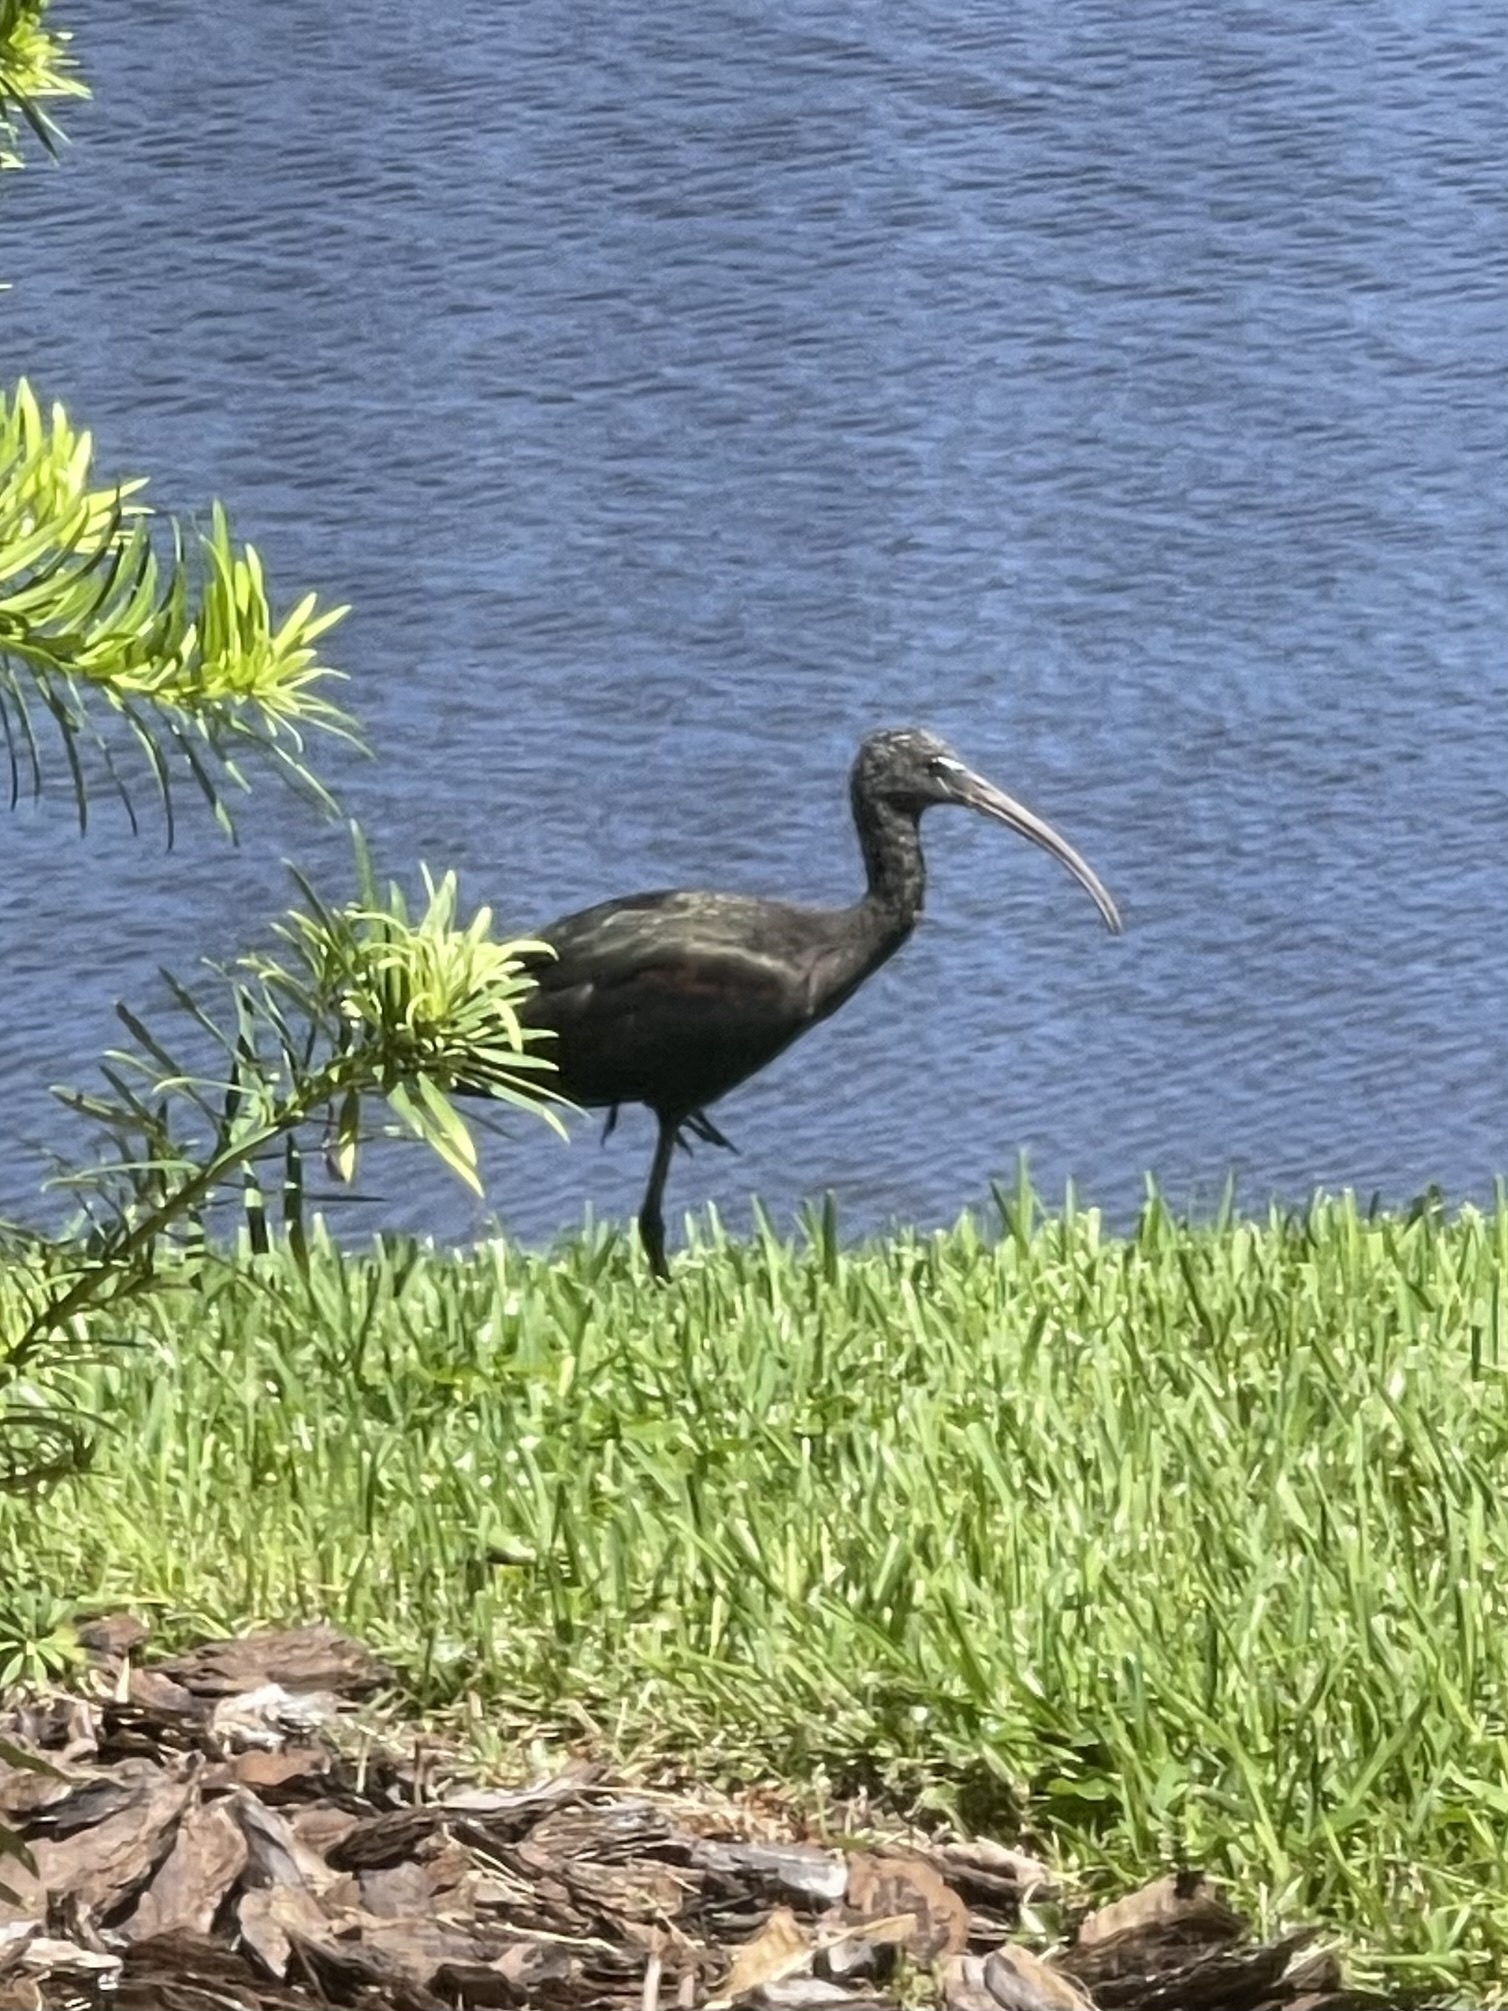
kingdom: Animalia
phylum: Chordata
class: Aves
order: Pelecaniformes
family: Threskiornithidae
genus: Plegadis
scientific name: Plegadis falcinellus
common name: Glossy ibis
